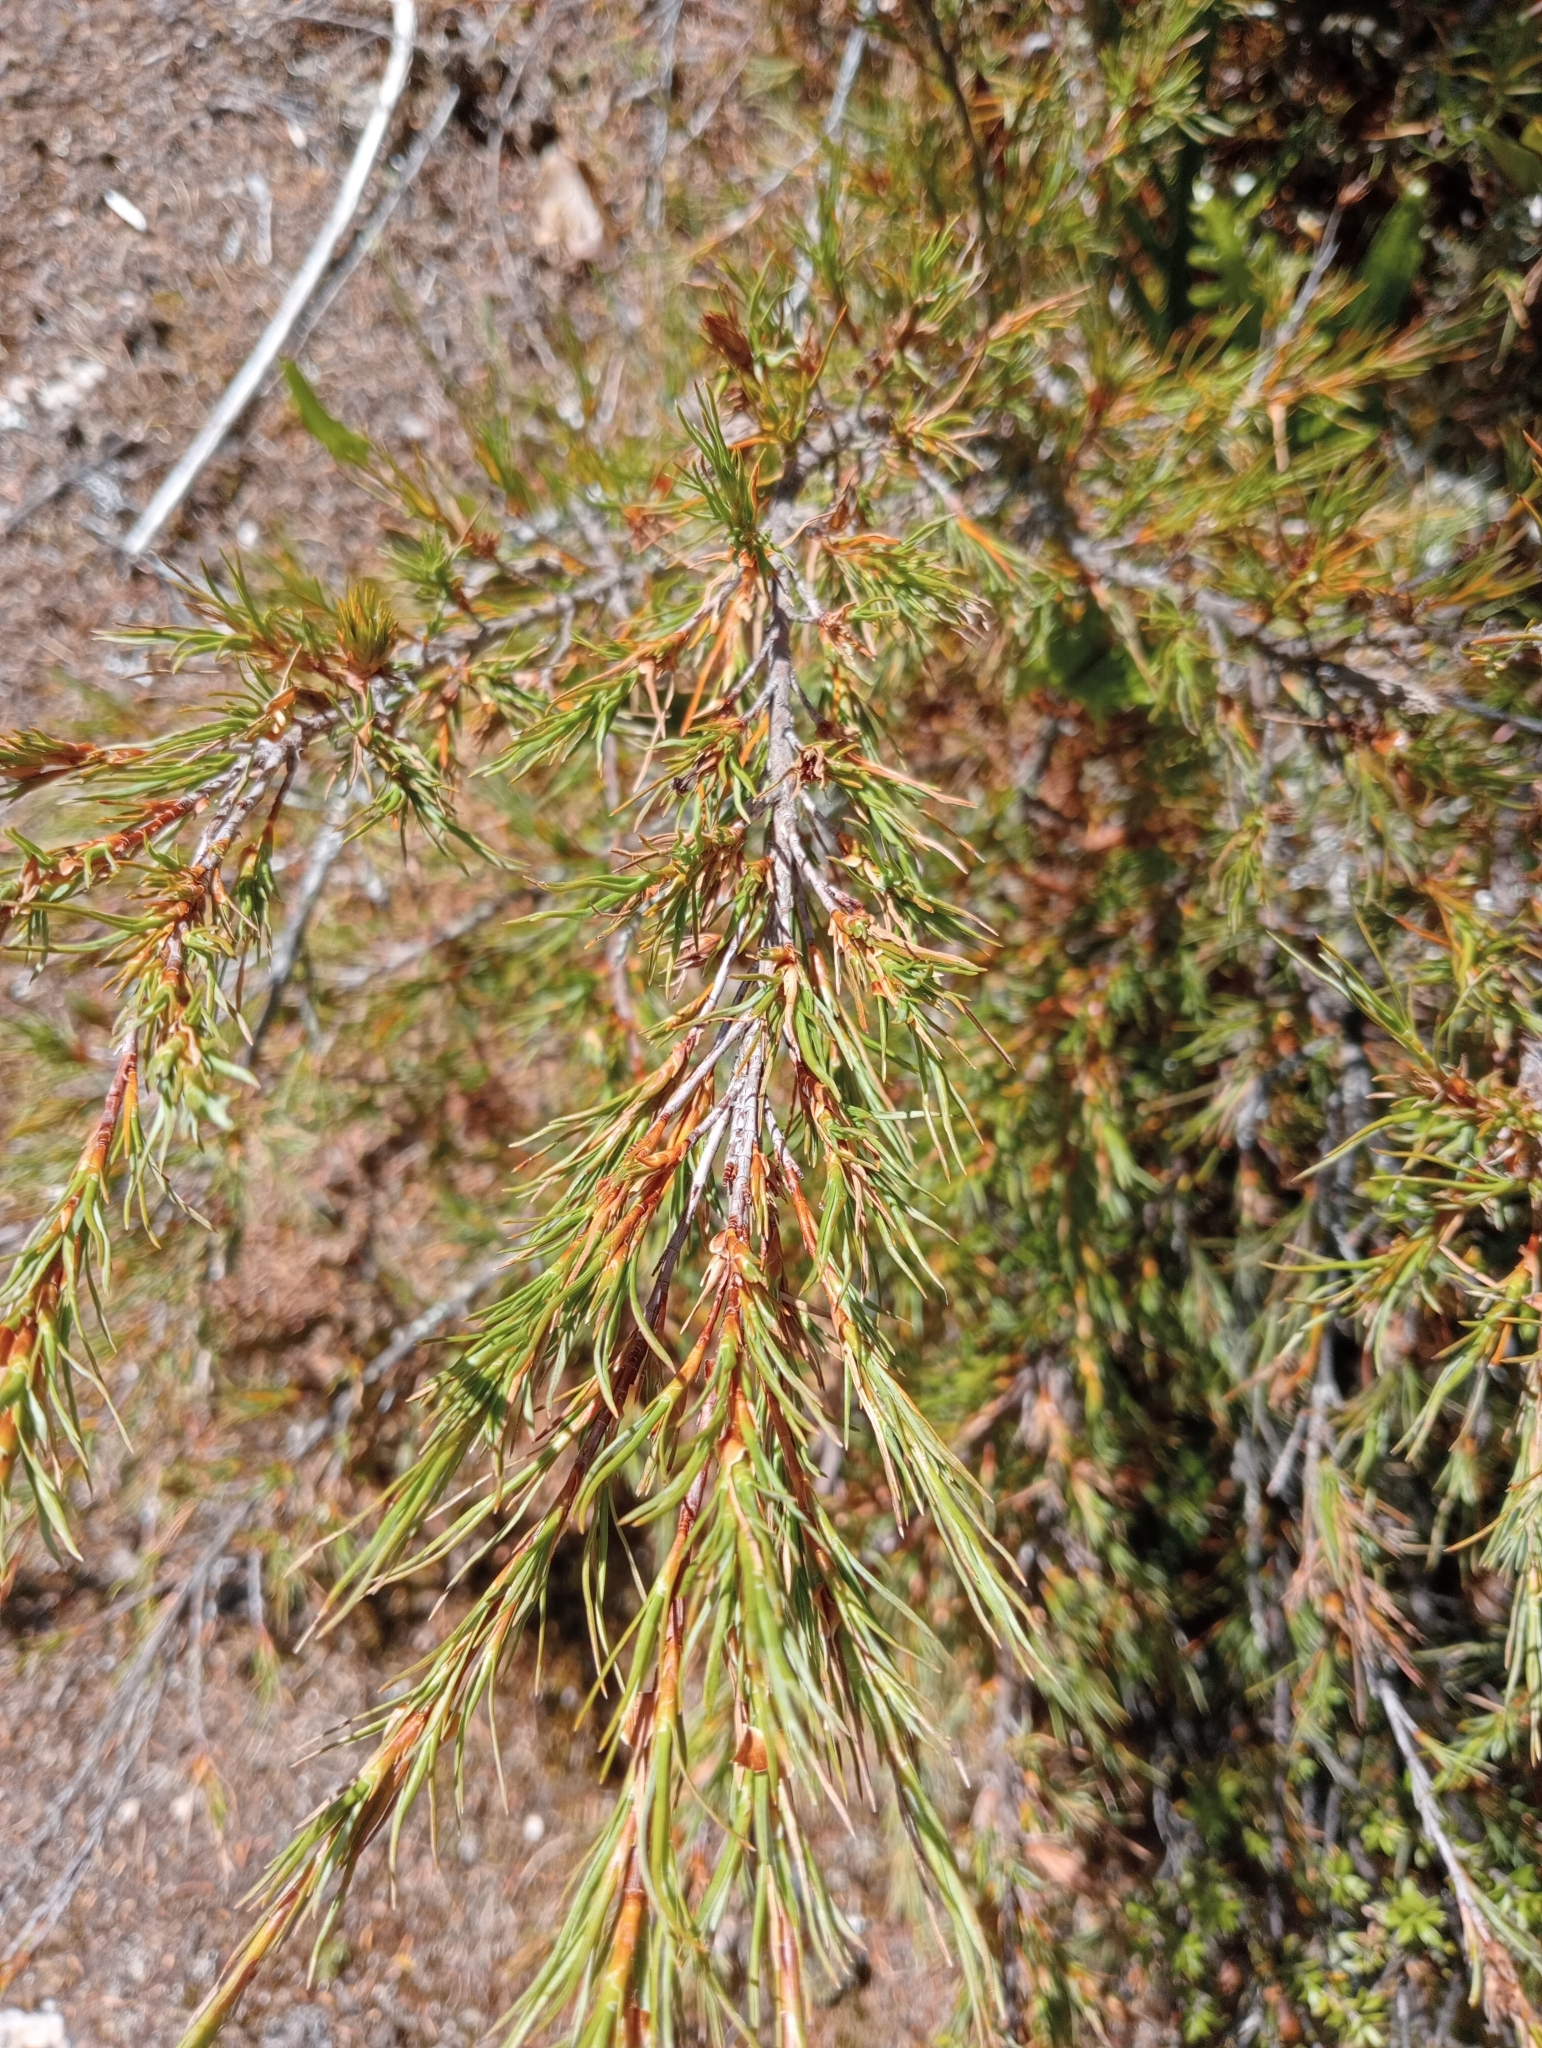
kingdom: Plantae
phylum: Tracheophyta
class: Magnoliopsida
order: Ericales
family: Ericaceae
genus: Dracophyllum
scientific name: Dracophyllum frondosum
